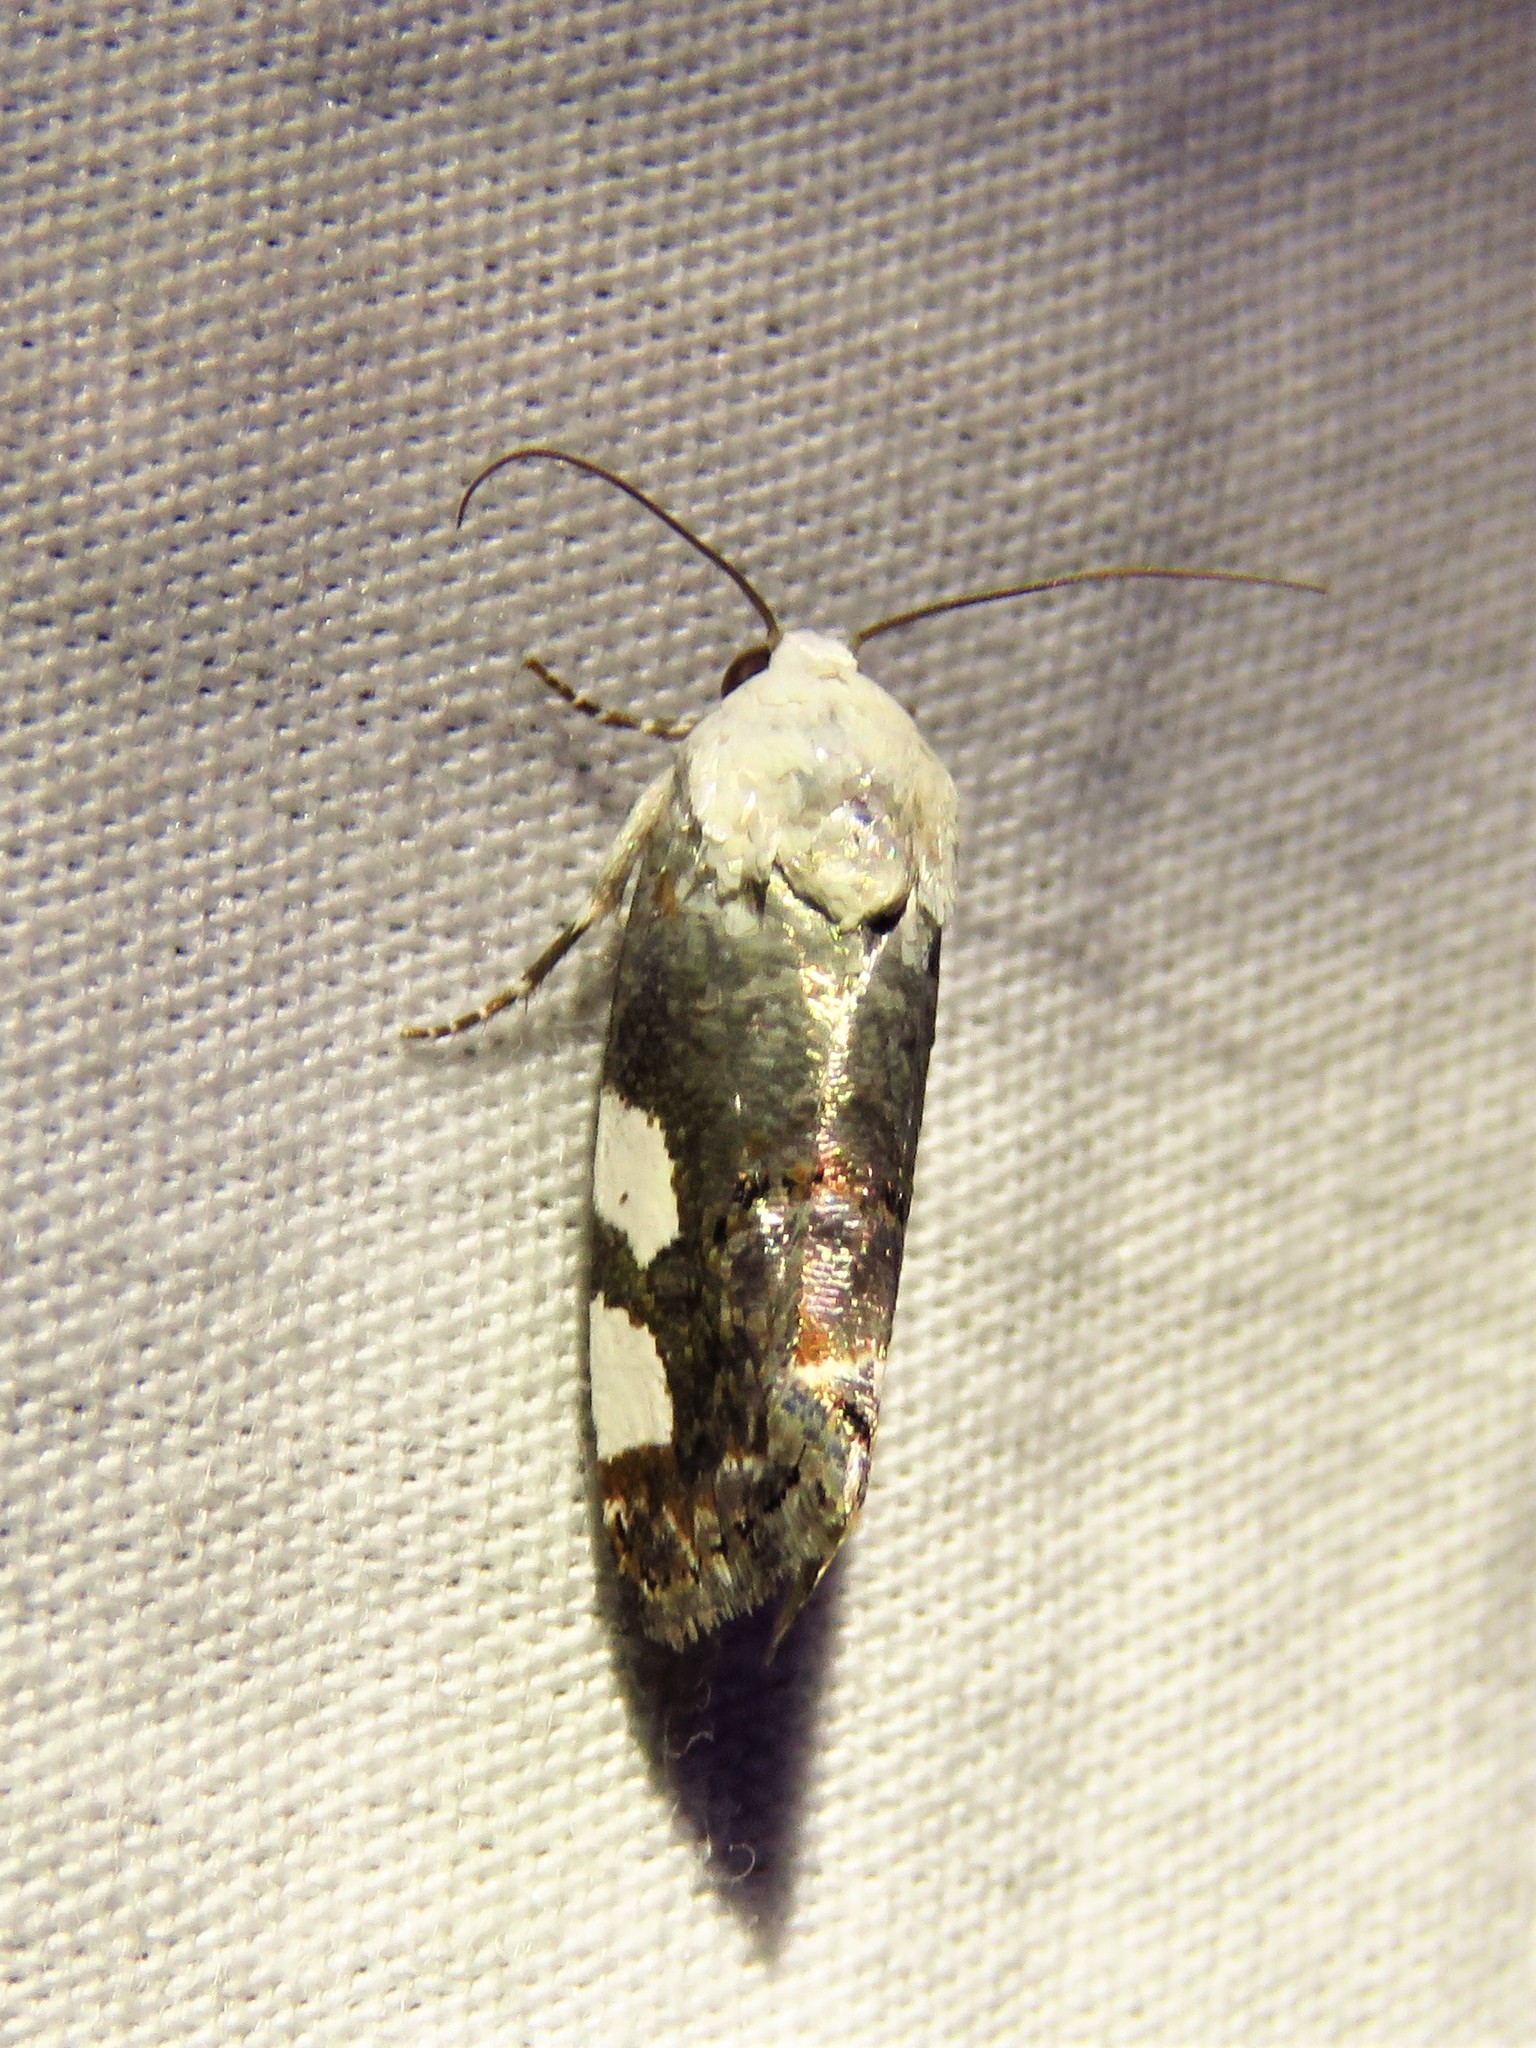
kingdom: Animalia
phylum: Arthropoda
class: Insecta
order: Lepidoptera
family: Noctuidae
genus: Acontia
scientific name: Acontia quadriplaga
